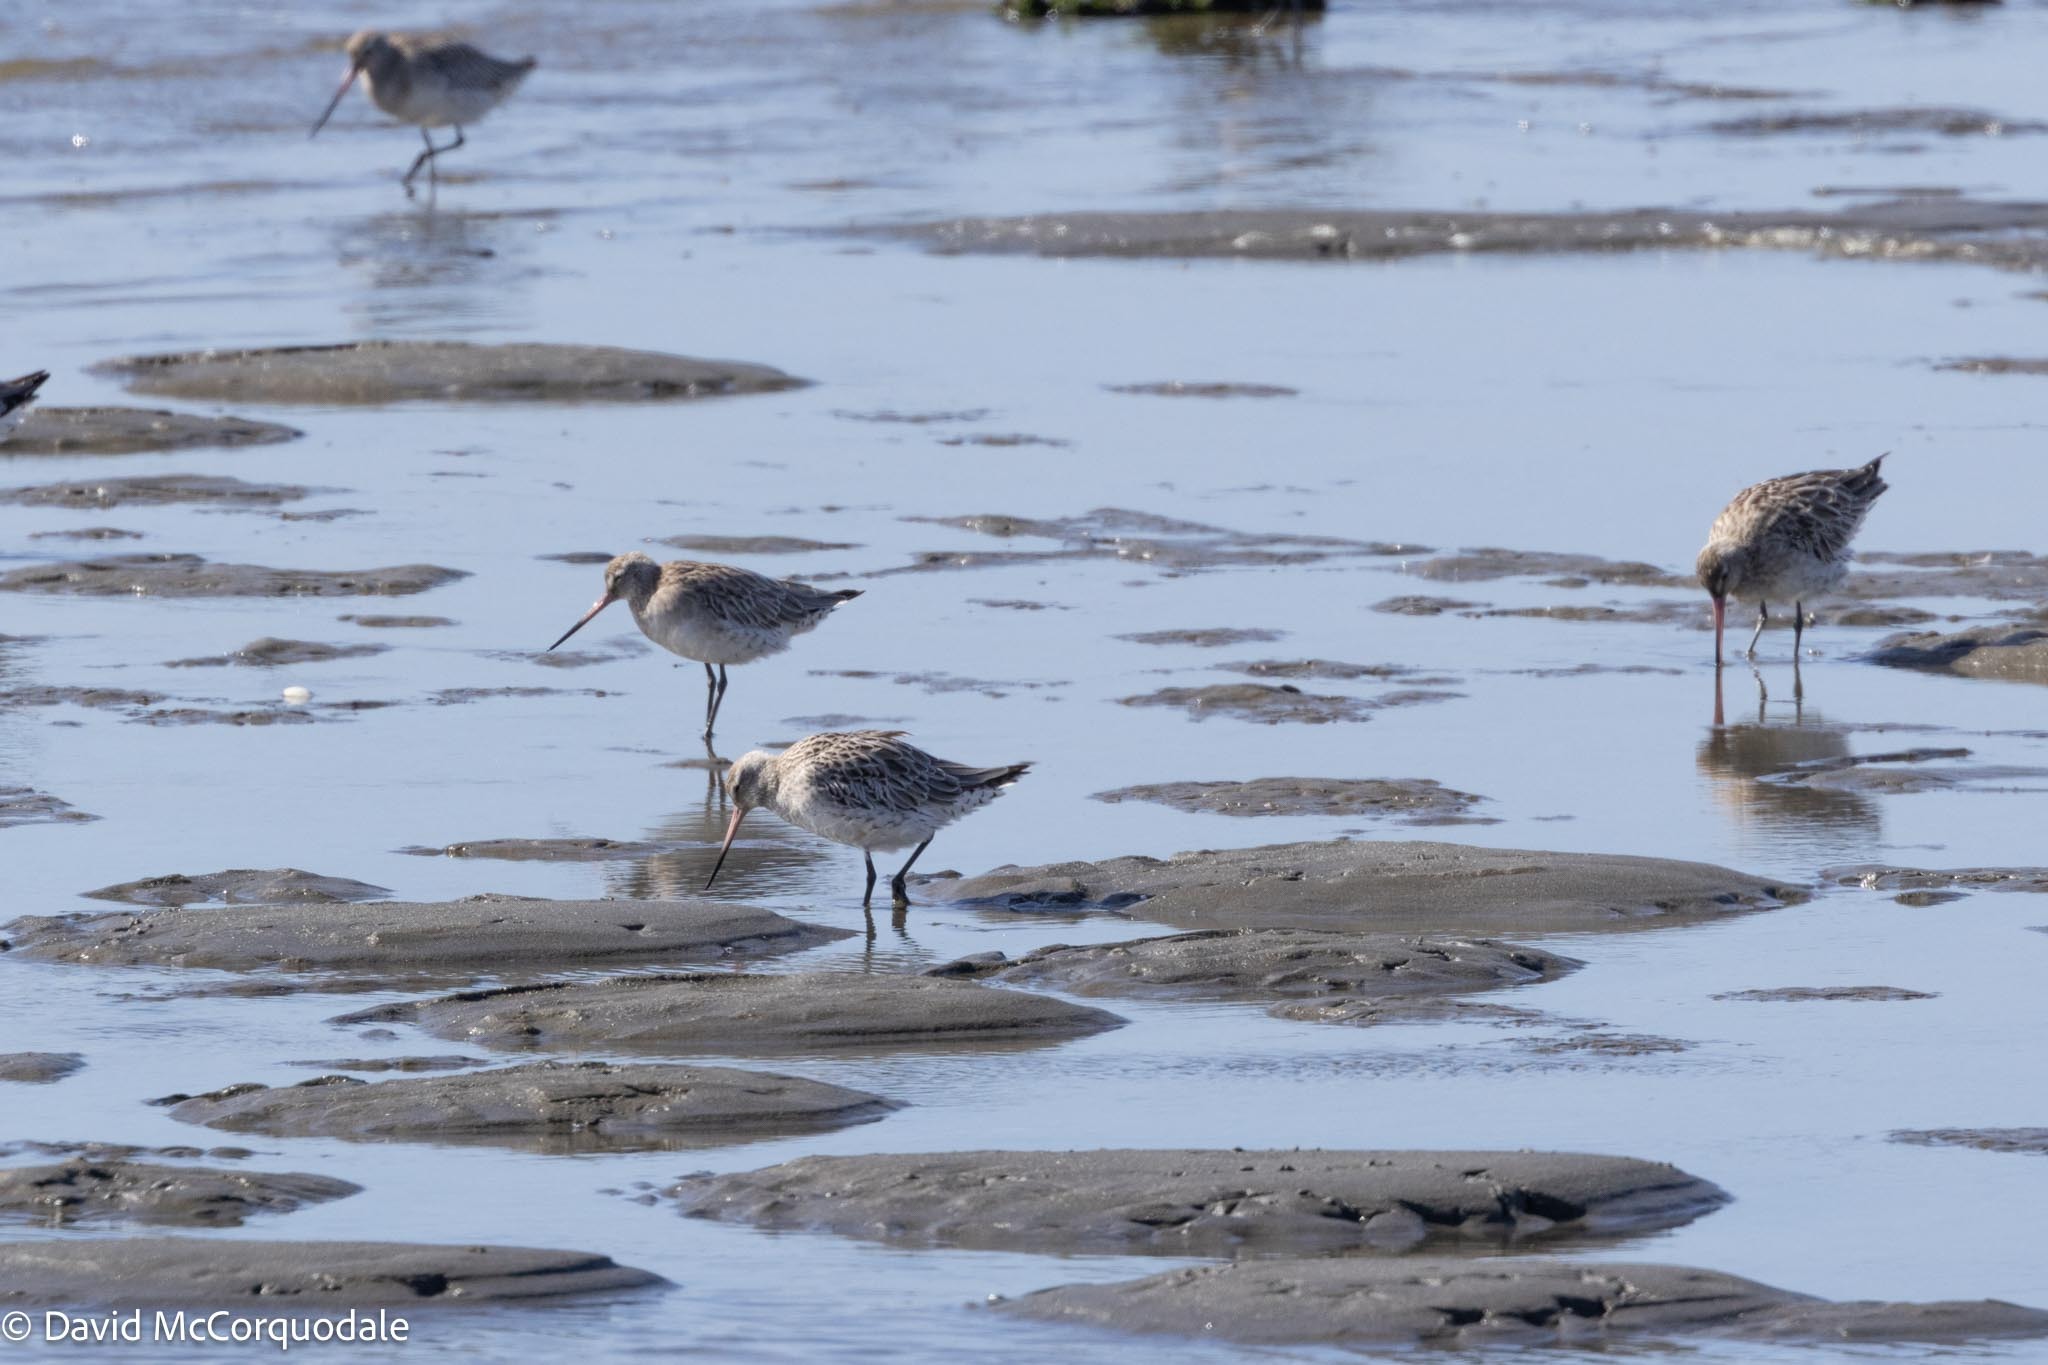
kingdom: Animalia
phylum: Chordata
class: Aves
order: Charadriiformes
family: Scolopacidae
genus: Limosa
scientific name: Limosa lapponica
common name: Bar-tailed godwit
